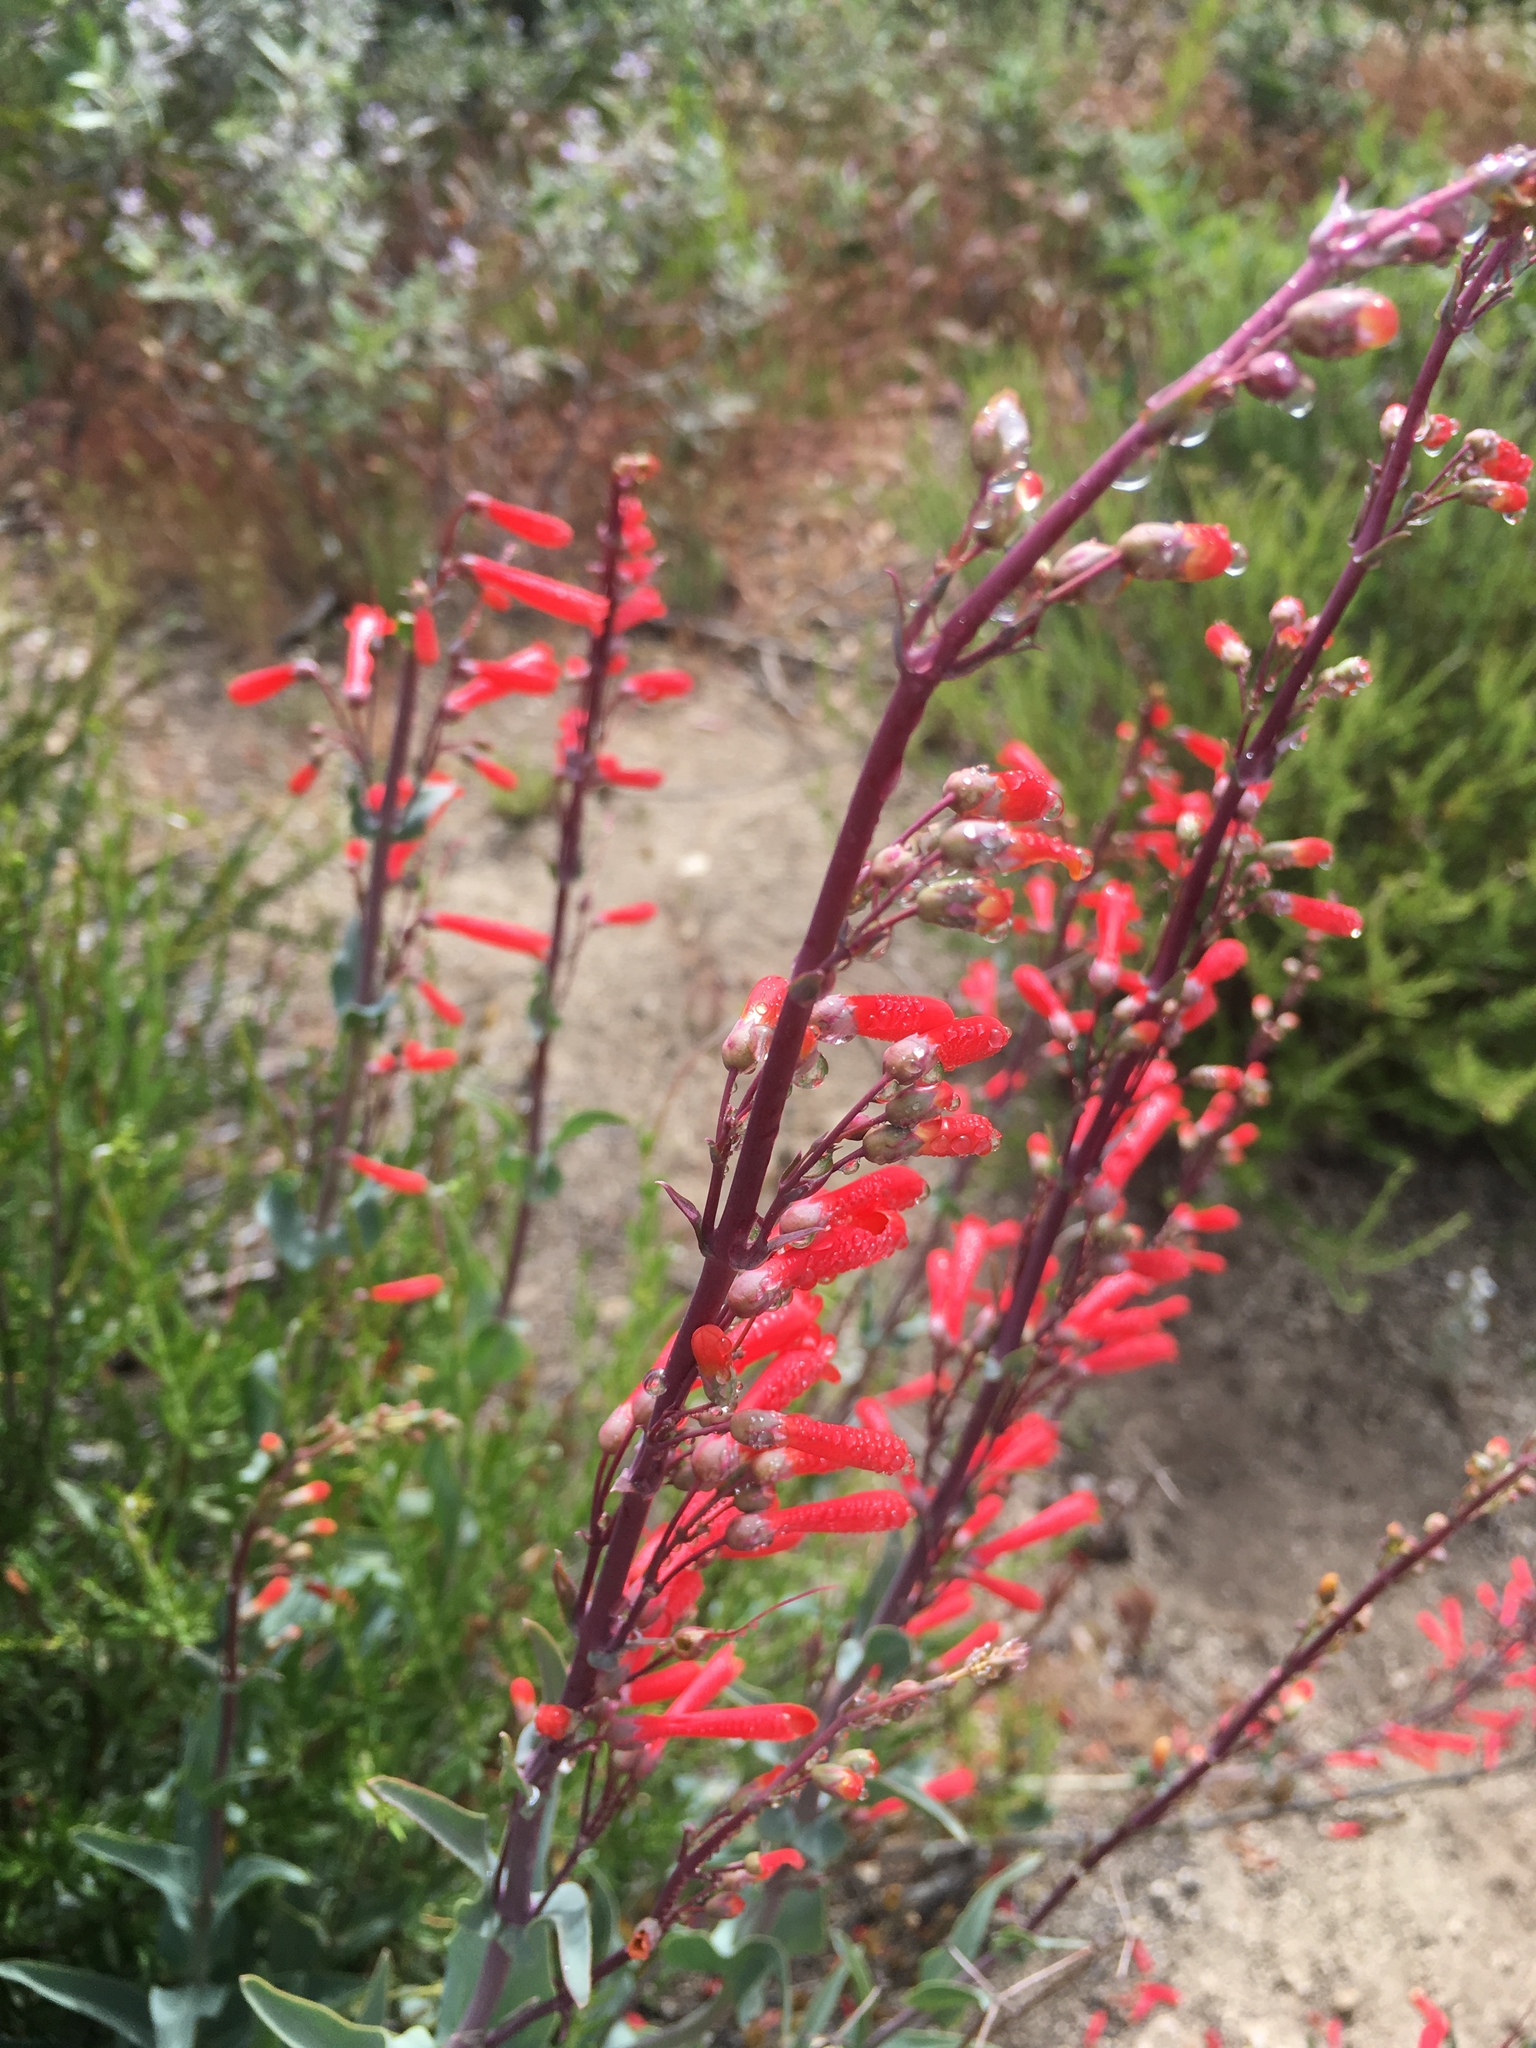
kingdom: Plantae
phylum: Tracheophyta
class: Magnoliopsida
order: Lamiales
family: Plantaginaceae
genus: Penstemon
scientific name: Penstemon centranthifolius
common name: Scarlet bugler
